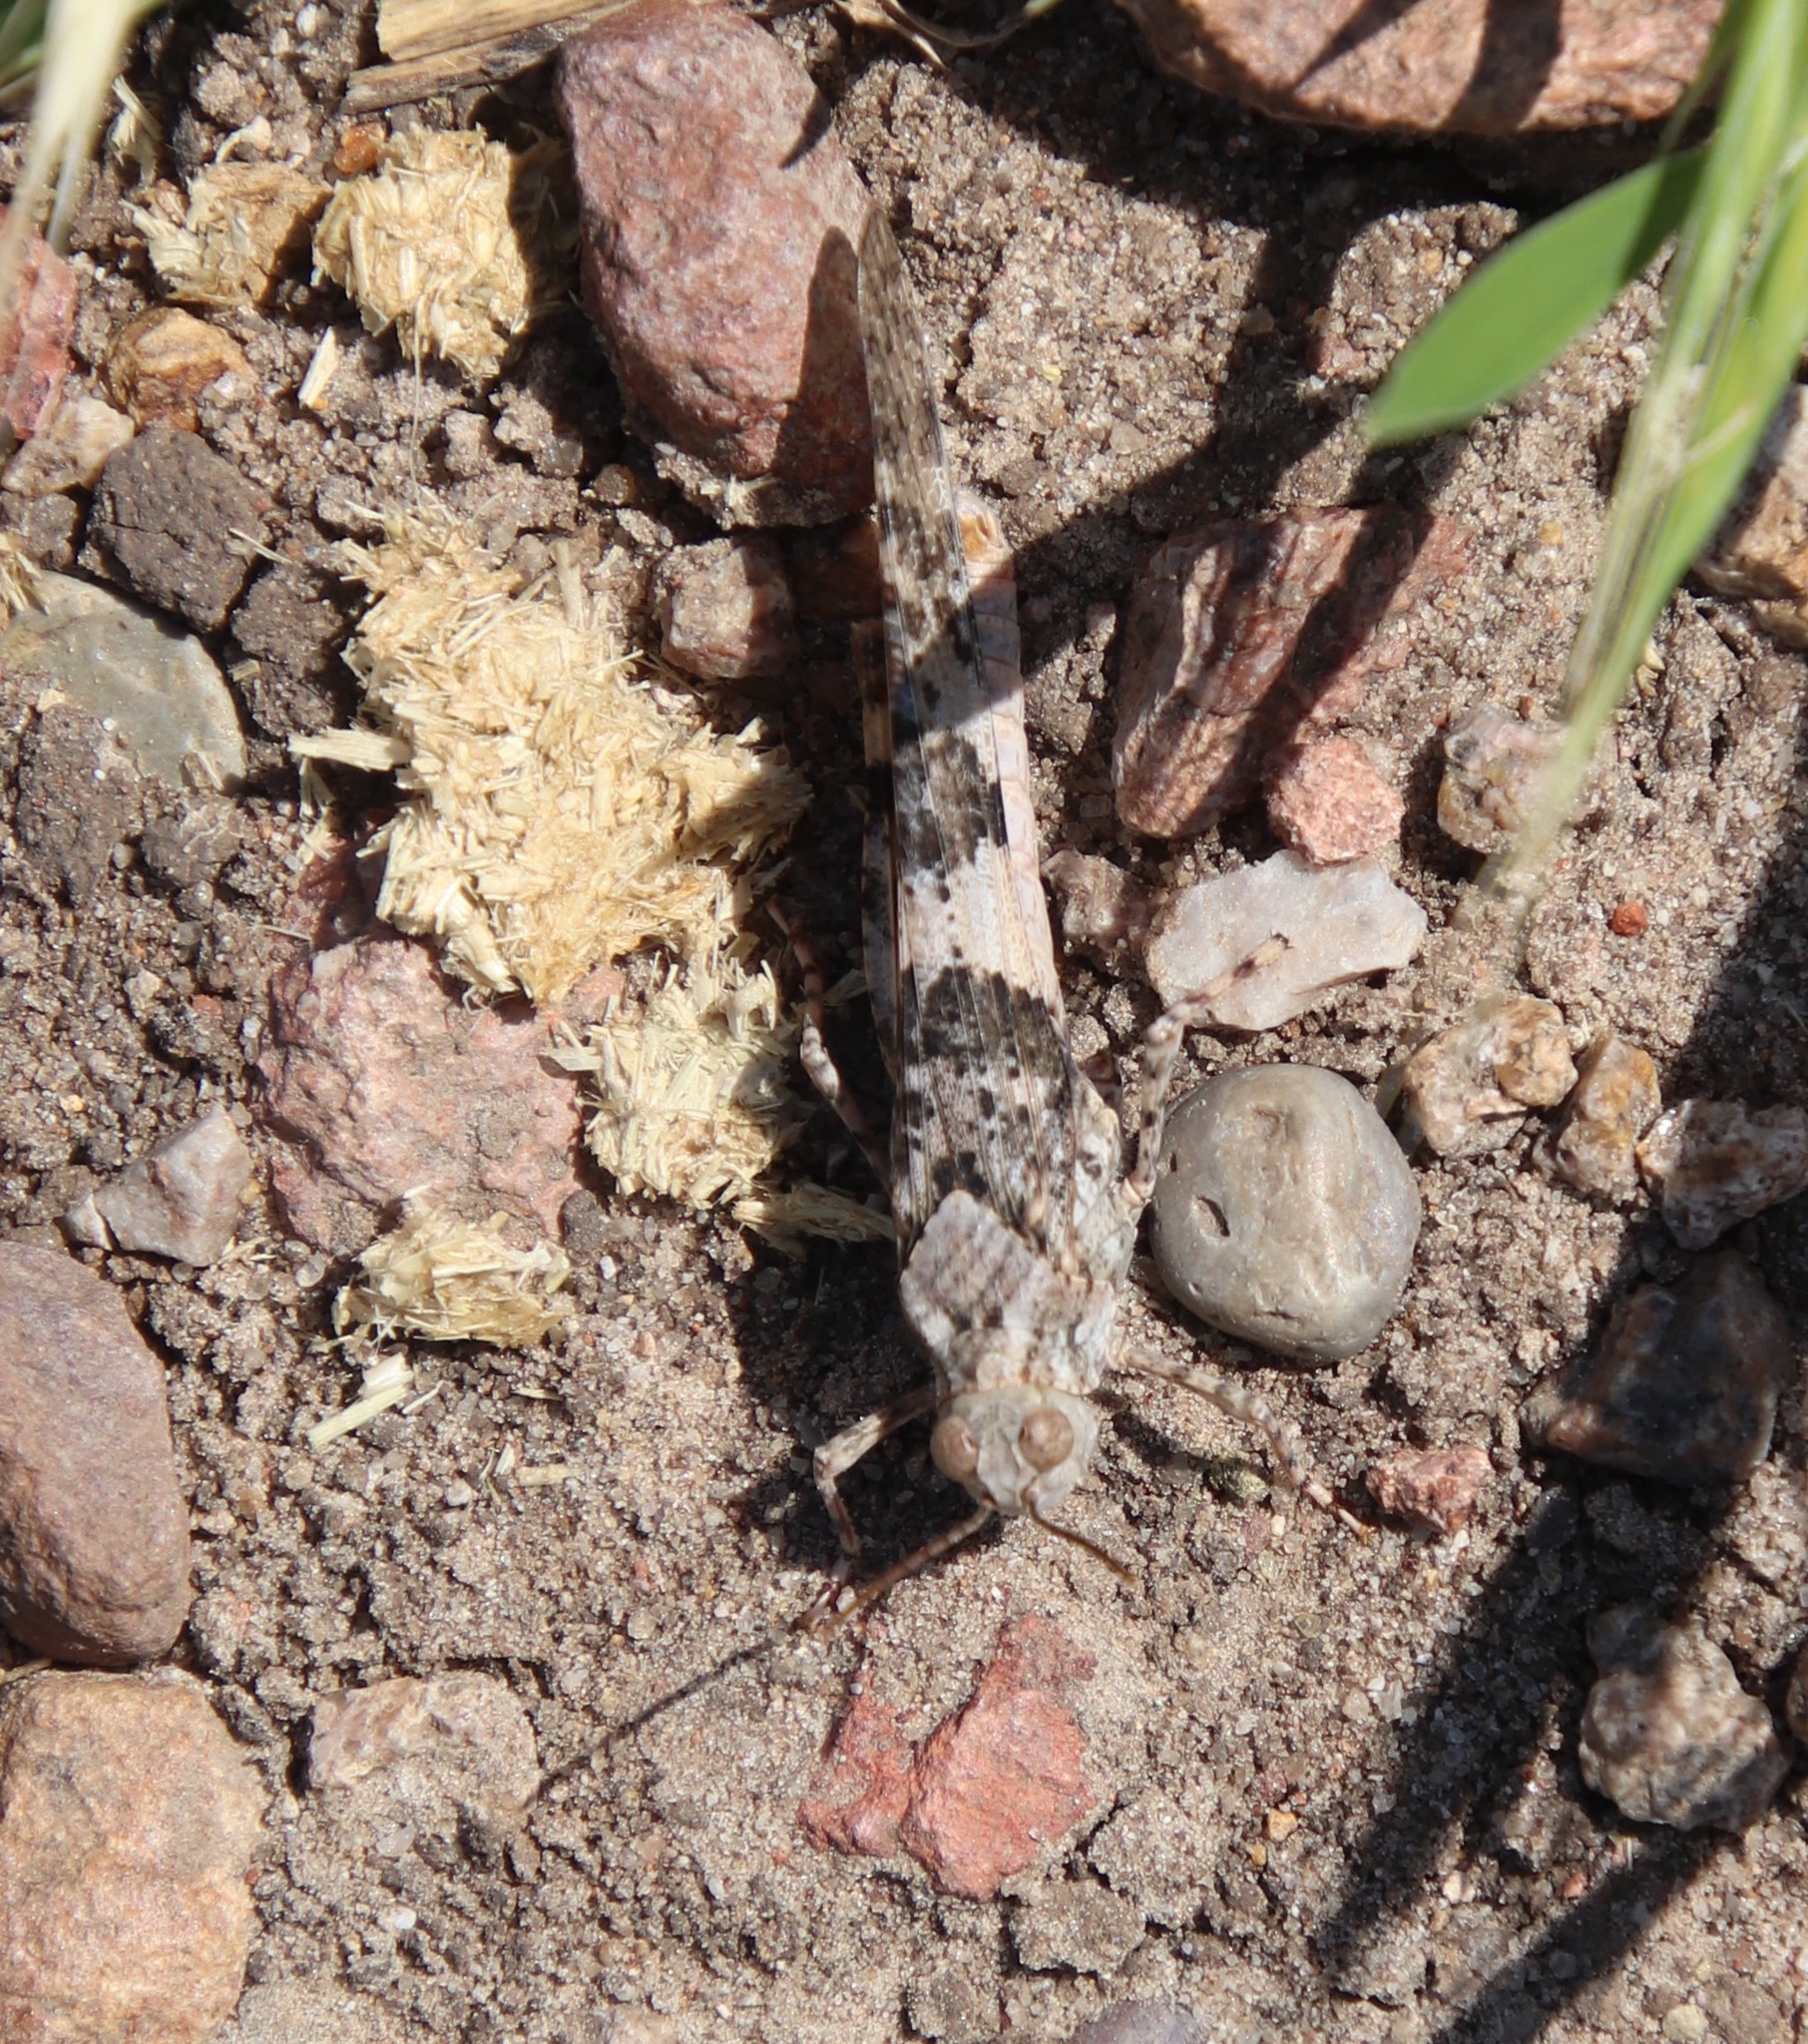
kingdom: Animalia
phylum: Arthropoda
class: Insecta
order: Orthoptera
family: Acrididae
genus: Trimerotropis
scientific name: Trimerotropis pallidipennis
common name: Pallid-winged grasshopper
